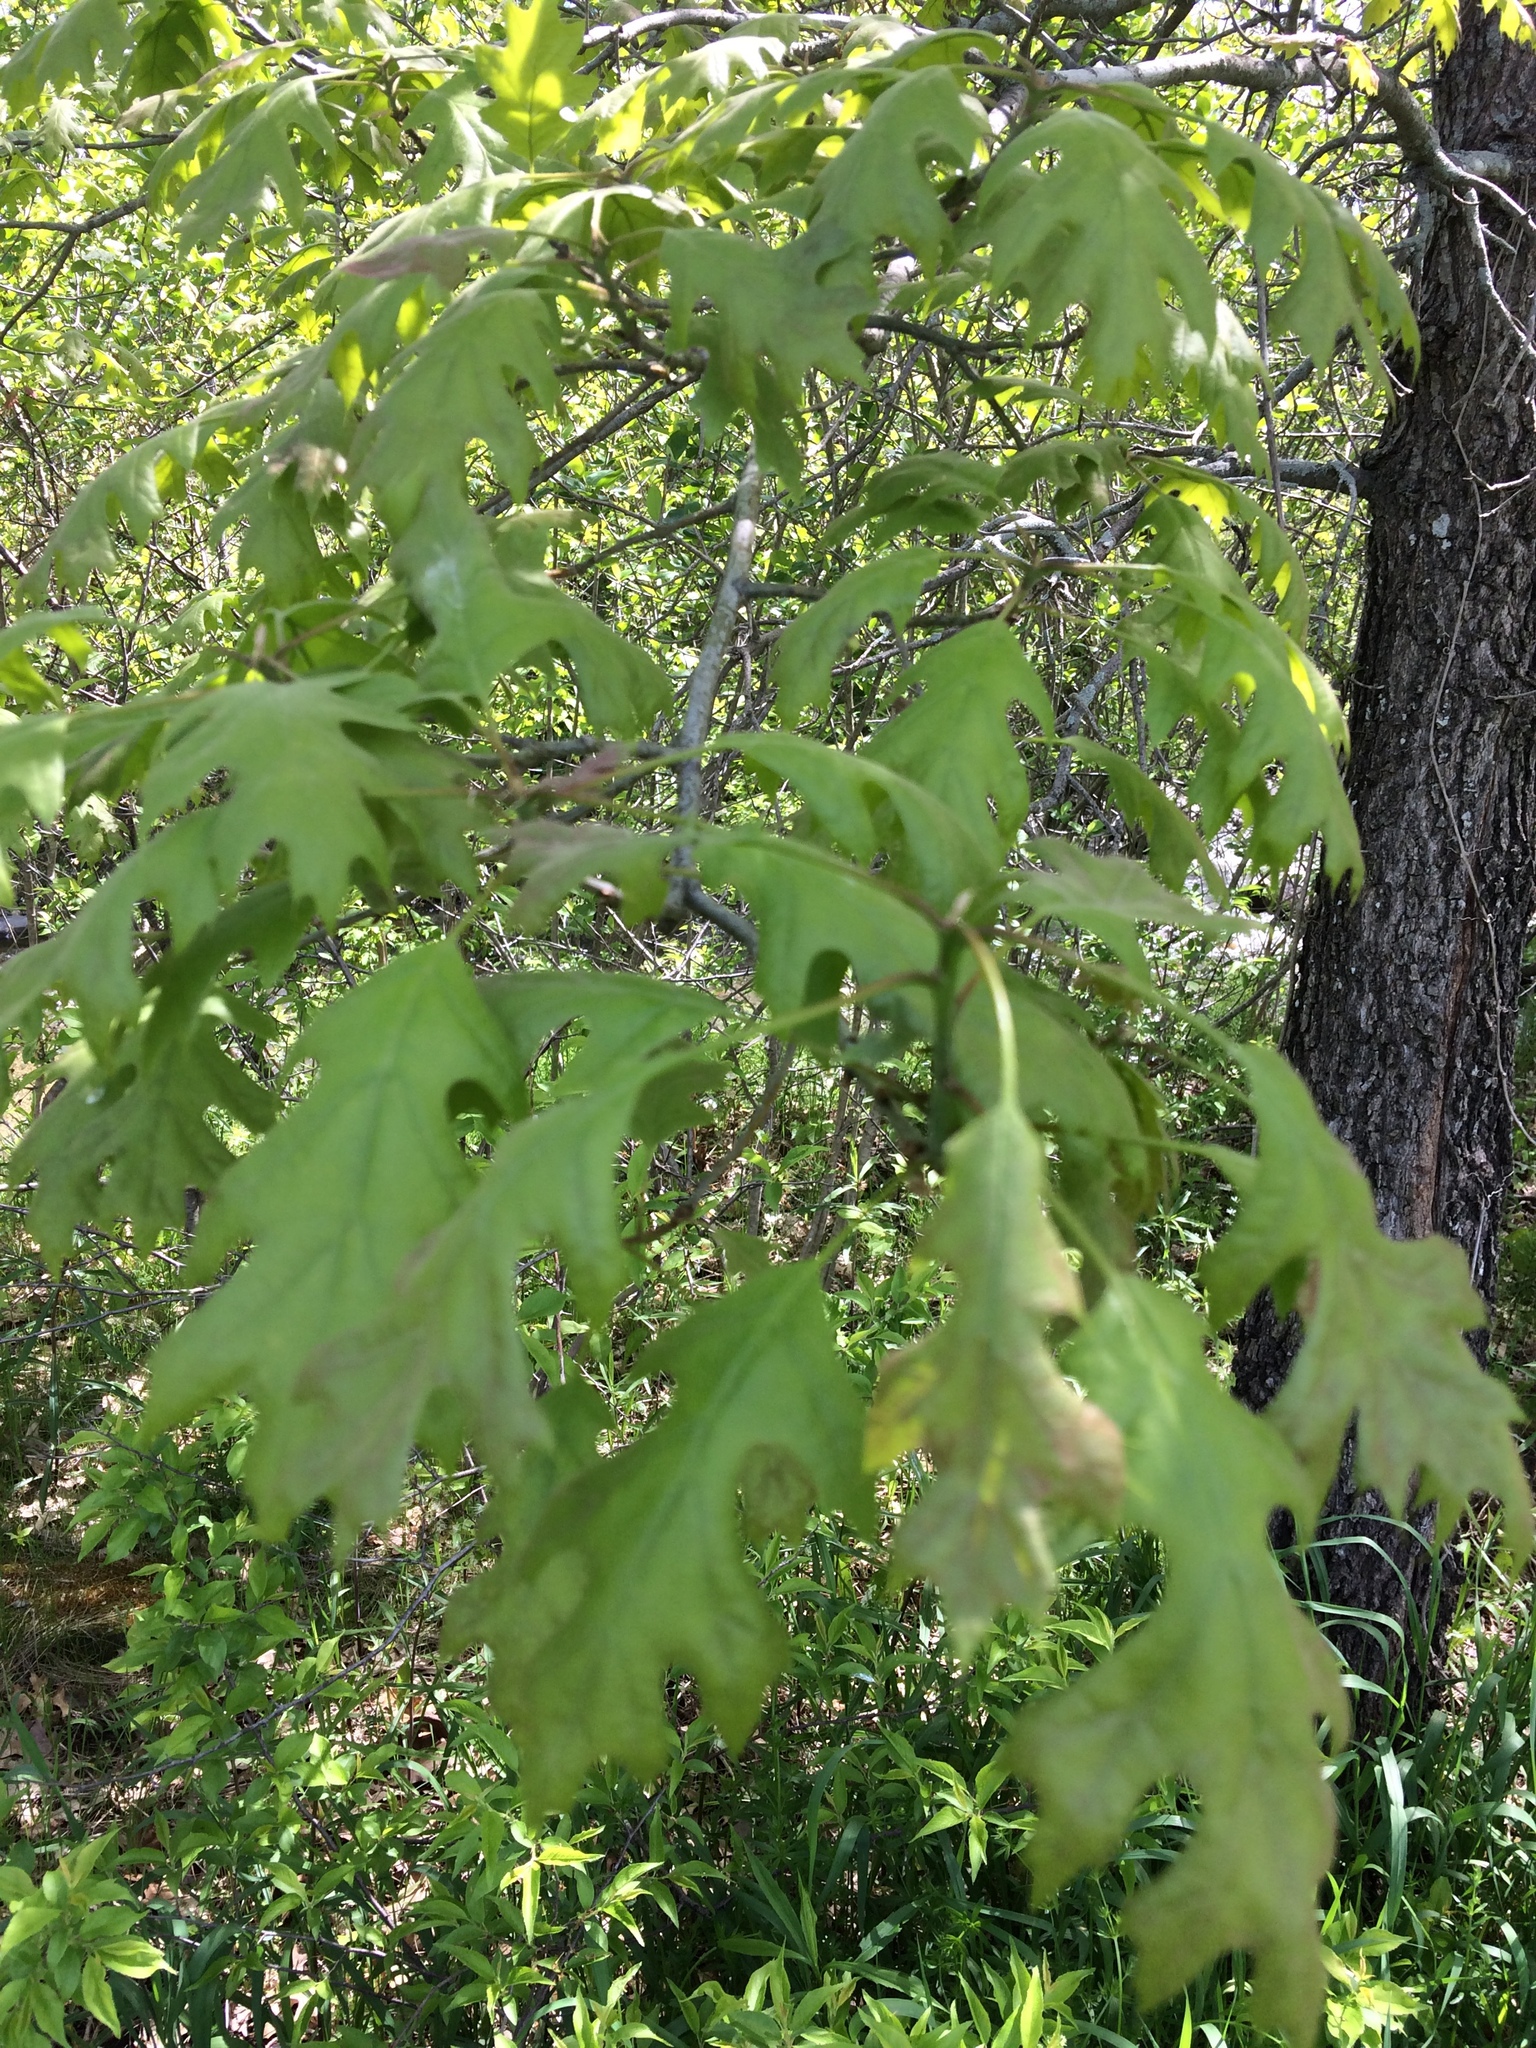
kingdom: Plantae
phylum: Tracheophyta
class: Magnoliopsida
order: Fagales
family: Fagaceae
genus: Quercus
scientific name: Quercus rubra
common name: Red oak
